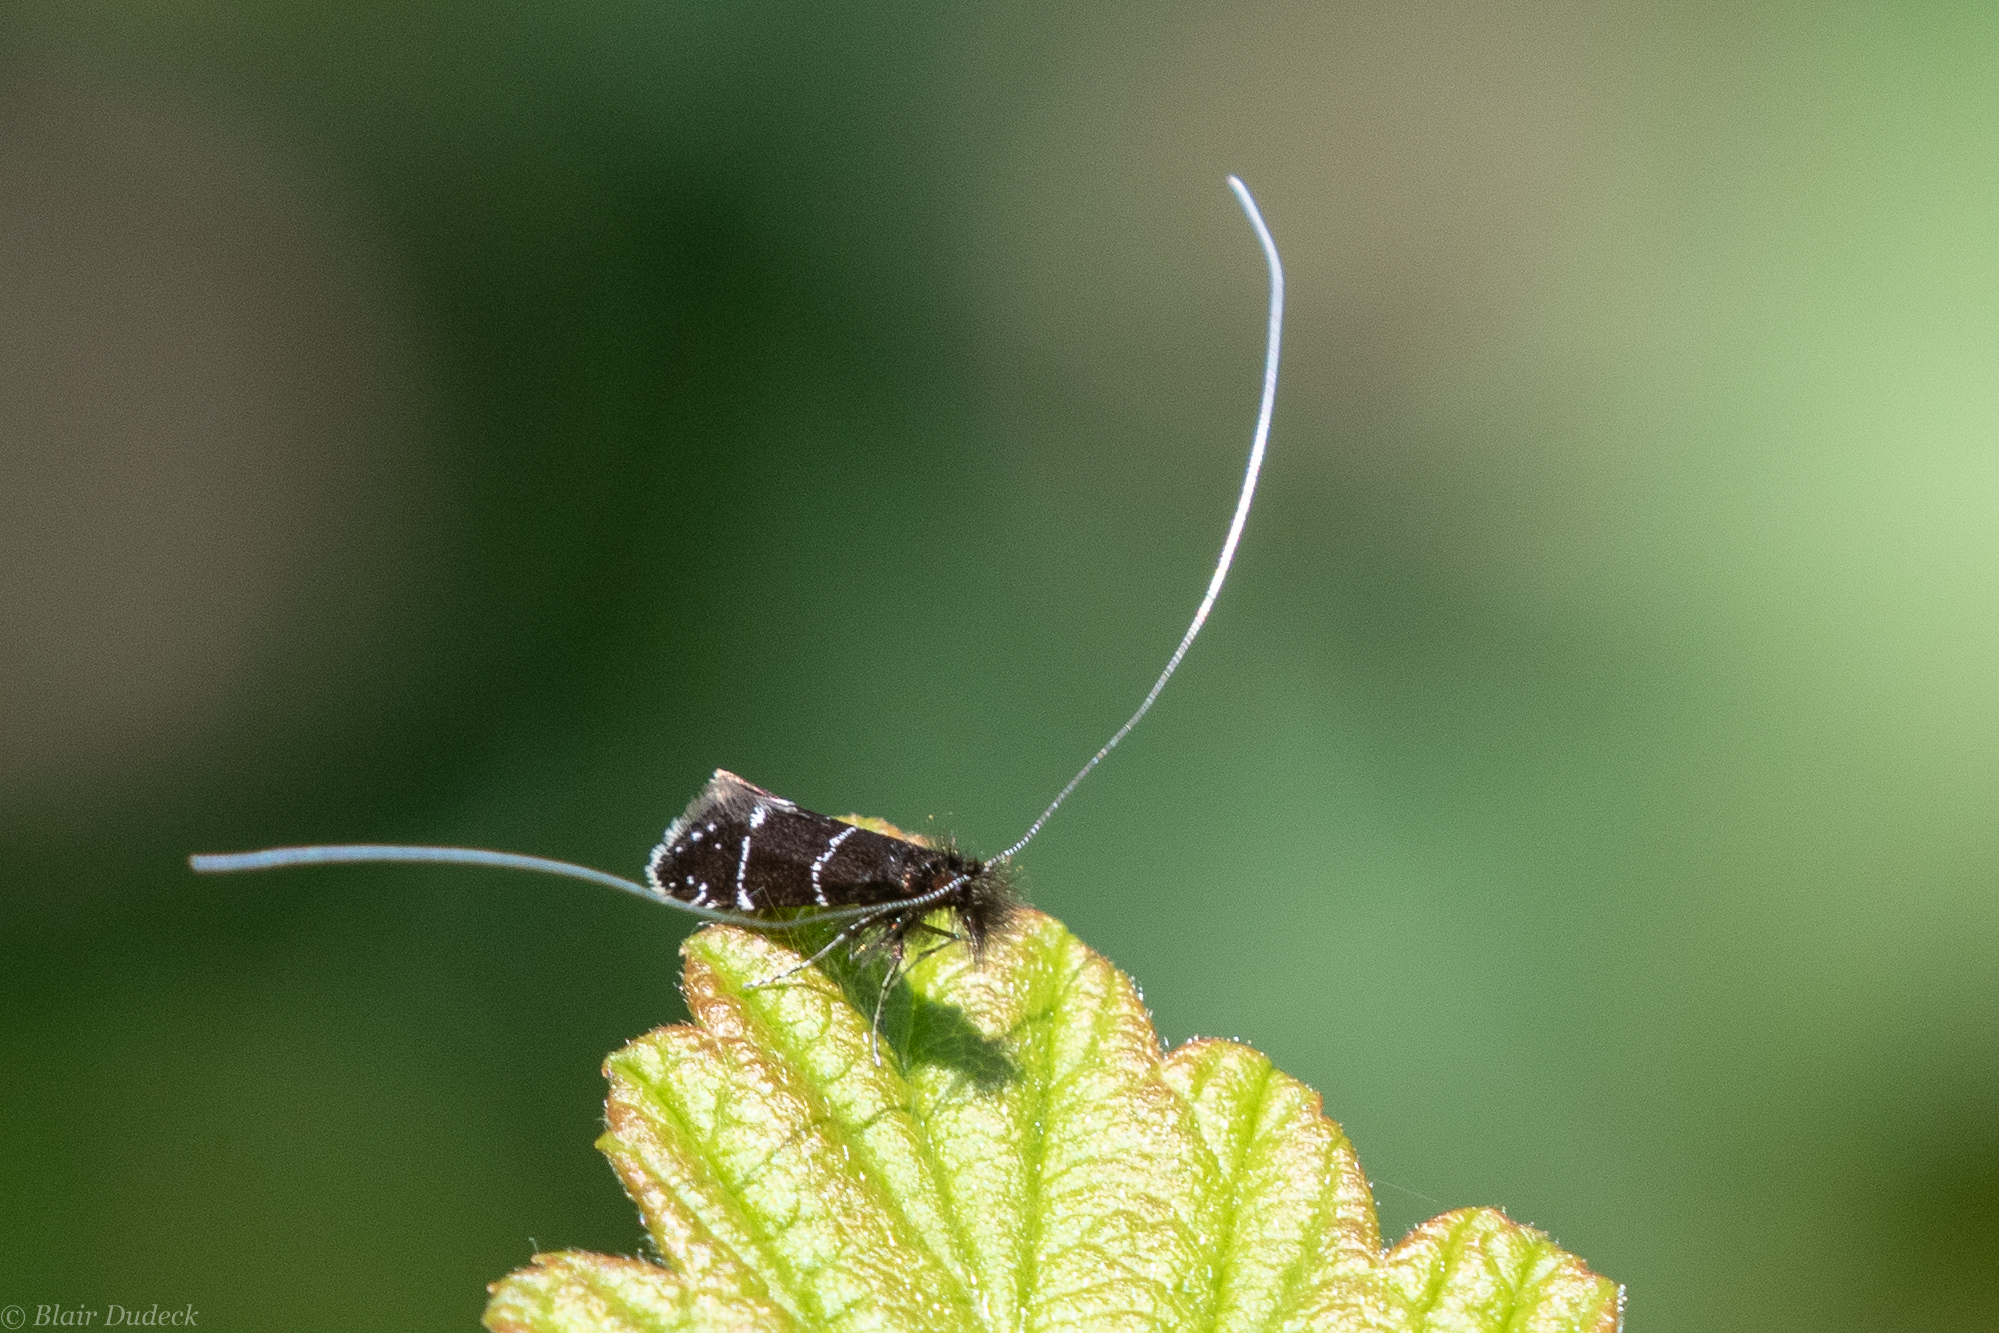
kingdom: Animalia
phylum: Arthropoda
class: Insecta
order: Lepidoptera
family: Adelidae
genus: Adela
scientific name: Adela septentrionella
